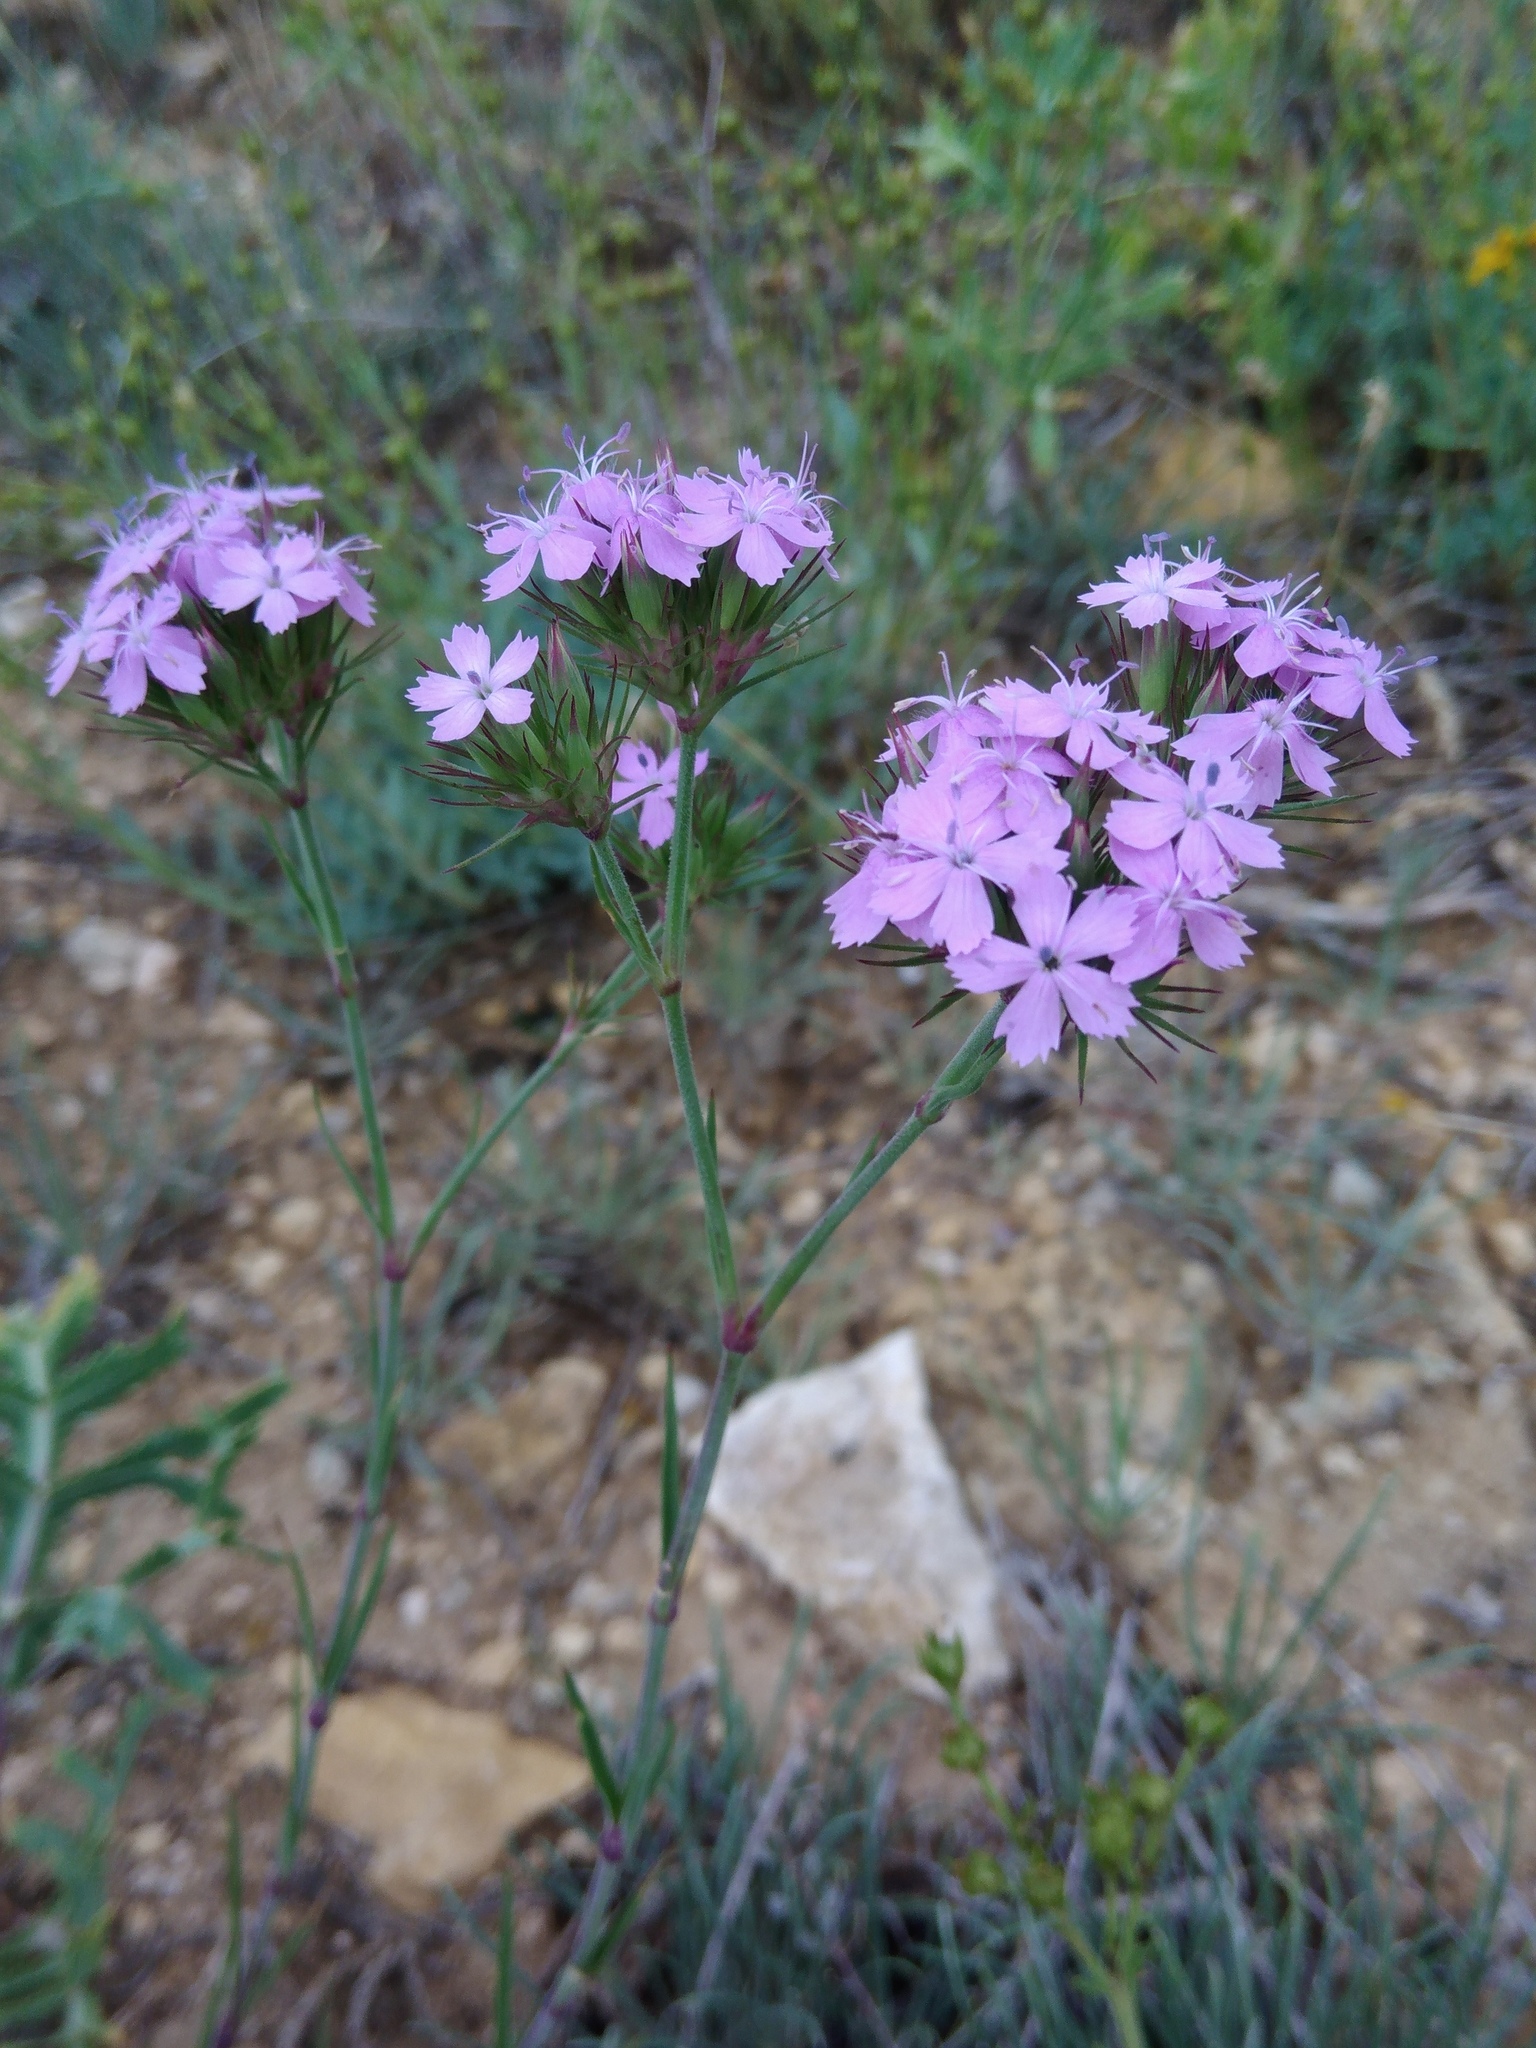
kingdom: Plantae
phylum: Tracheophyta
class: Magnoliopsida
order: Caryophyllales
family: Caryophyllaceae
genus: Dianthus
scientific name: Dianthus pseudarmeria
